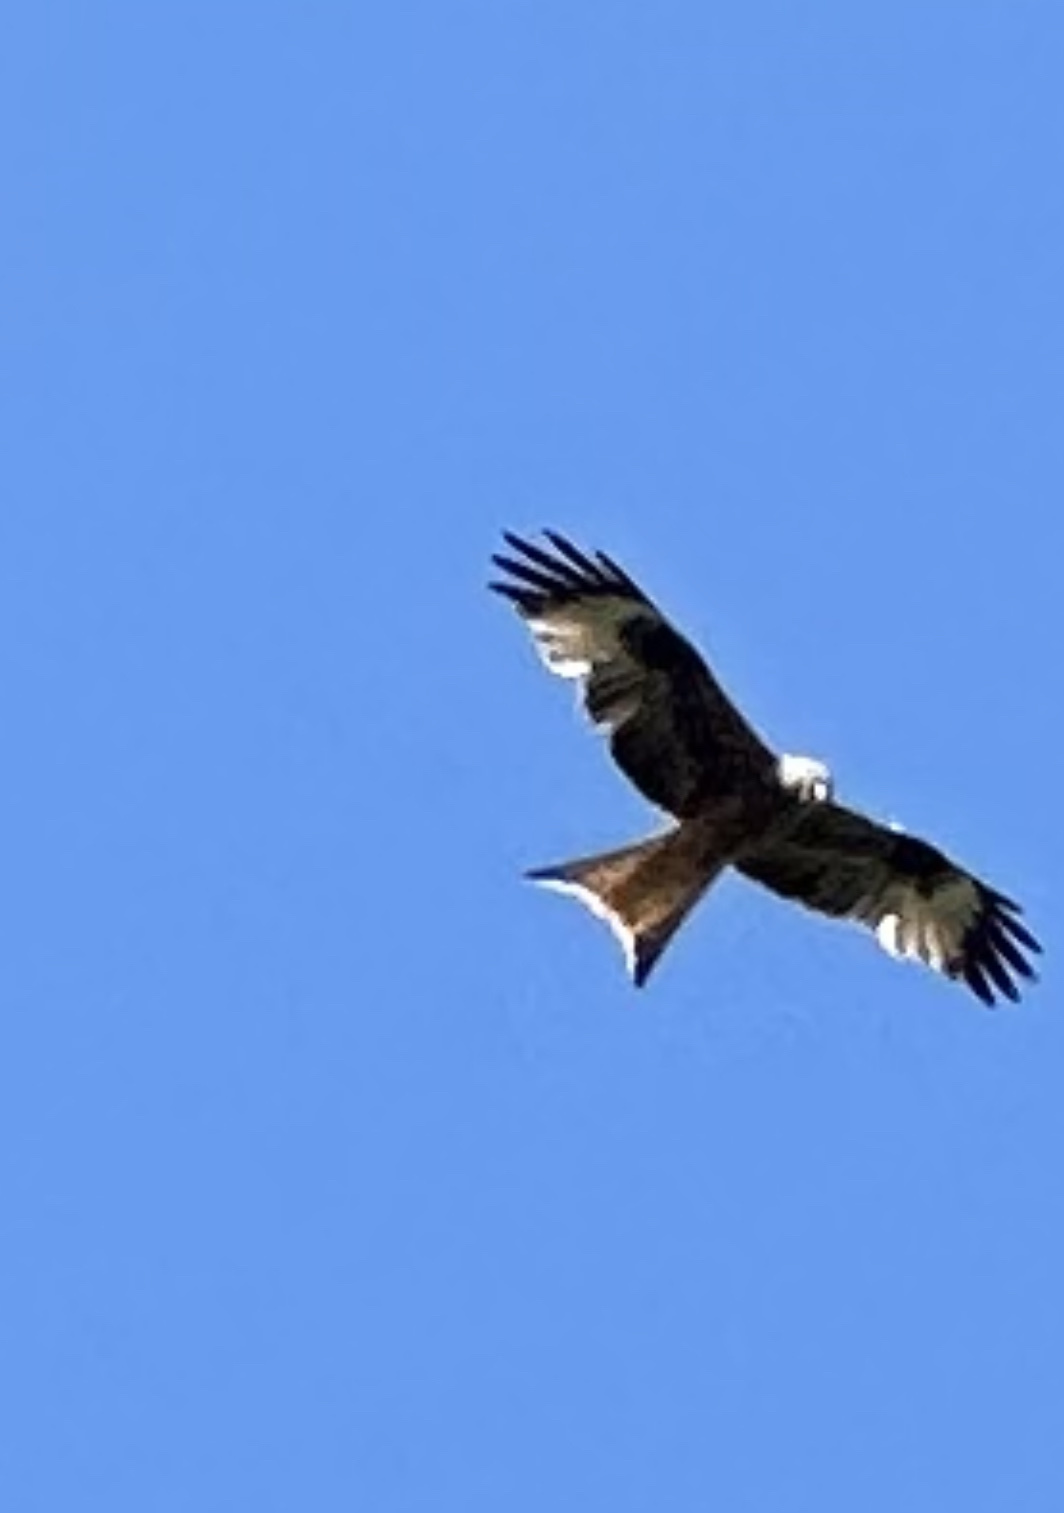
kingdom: Animalia
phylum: Chordata
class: Aves
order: Accipitriformes
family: Accipitridae
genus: Milvus
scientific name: Milvus milvus
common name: Red kite
